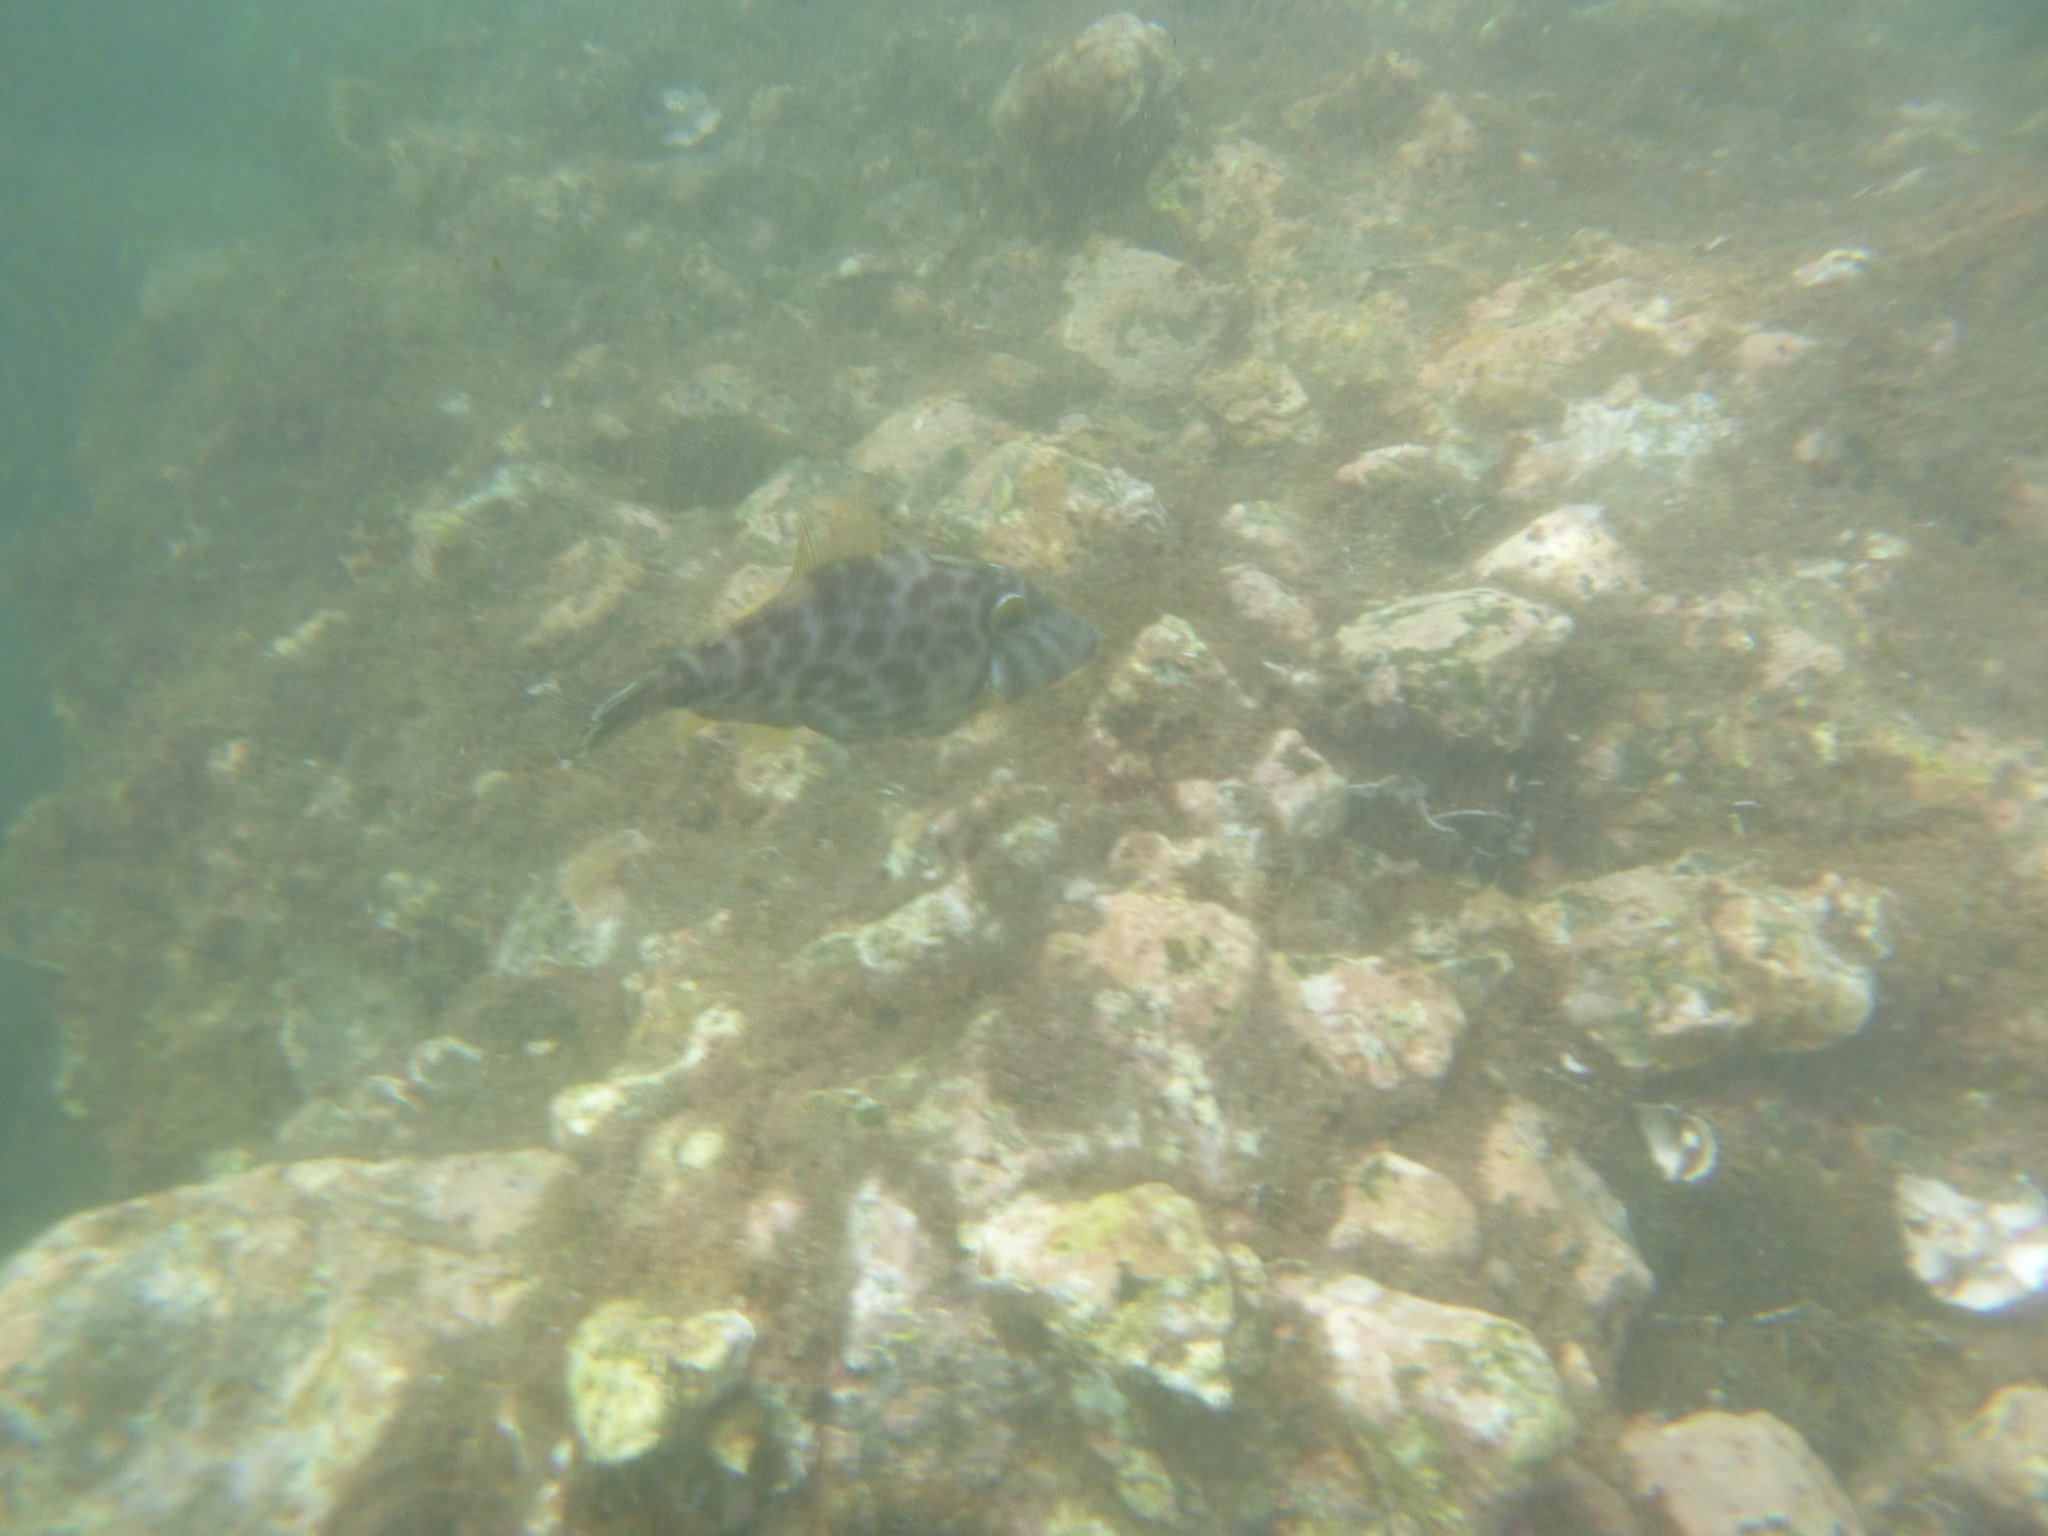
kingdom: Animalia
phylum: Chordata
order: Tetraodontiformes
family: Monacanthidae
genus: Meuschenia
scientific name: Meuschenia scaber
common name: Cosmopolitan leatherjacket
